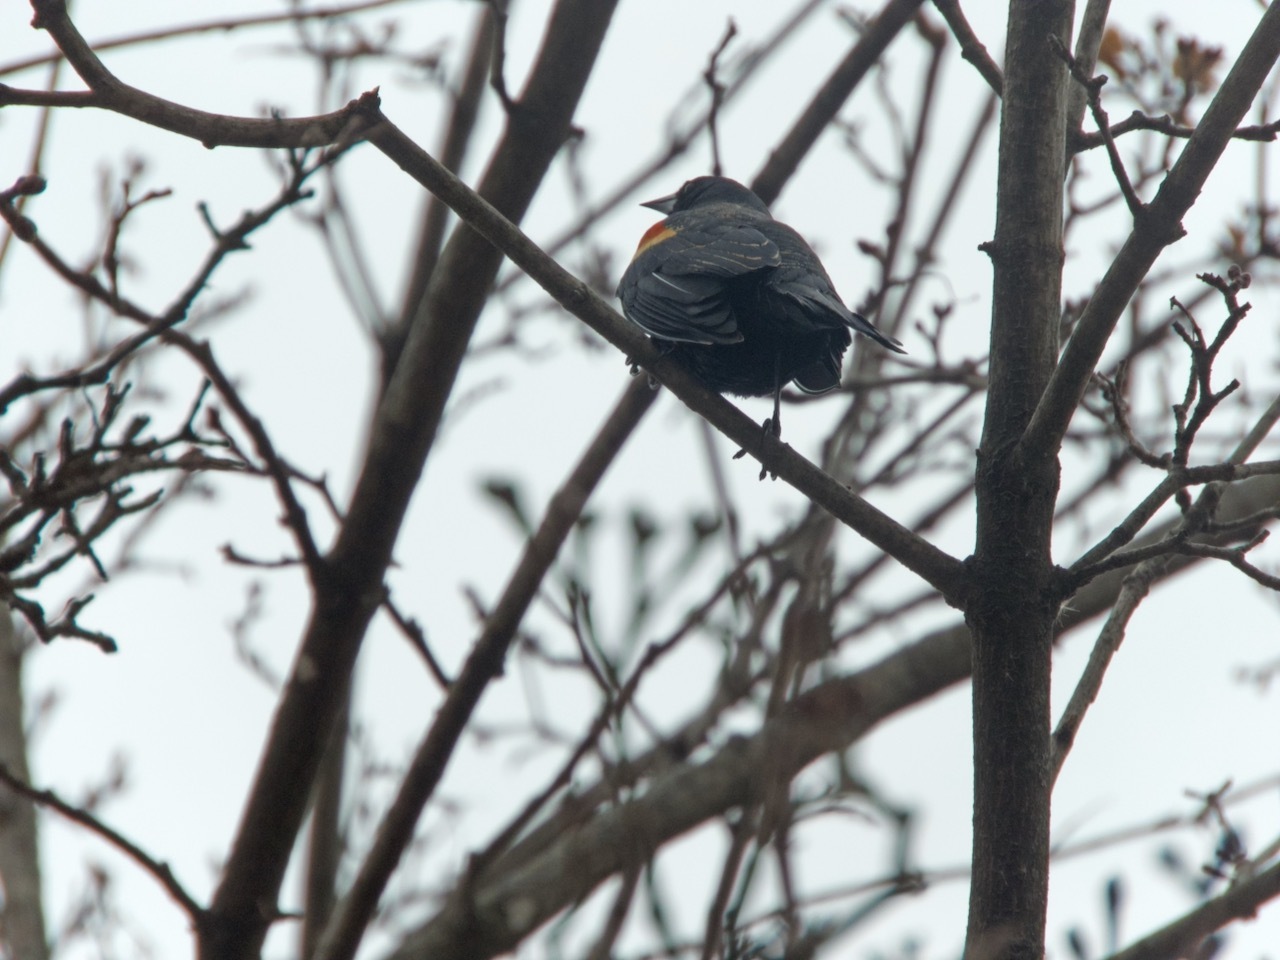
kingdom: Animalia
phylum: Chordata
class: Aves
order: Passeriformes
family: Icteridae
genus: Agelaius
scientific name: Agelaius phoeniceus
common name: Red-winged blackbird
